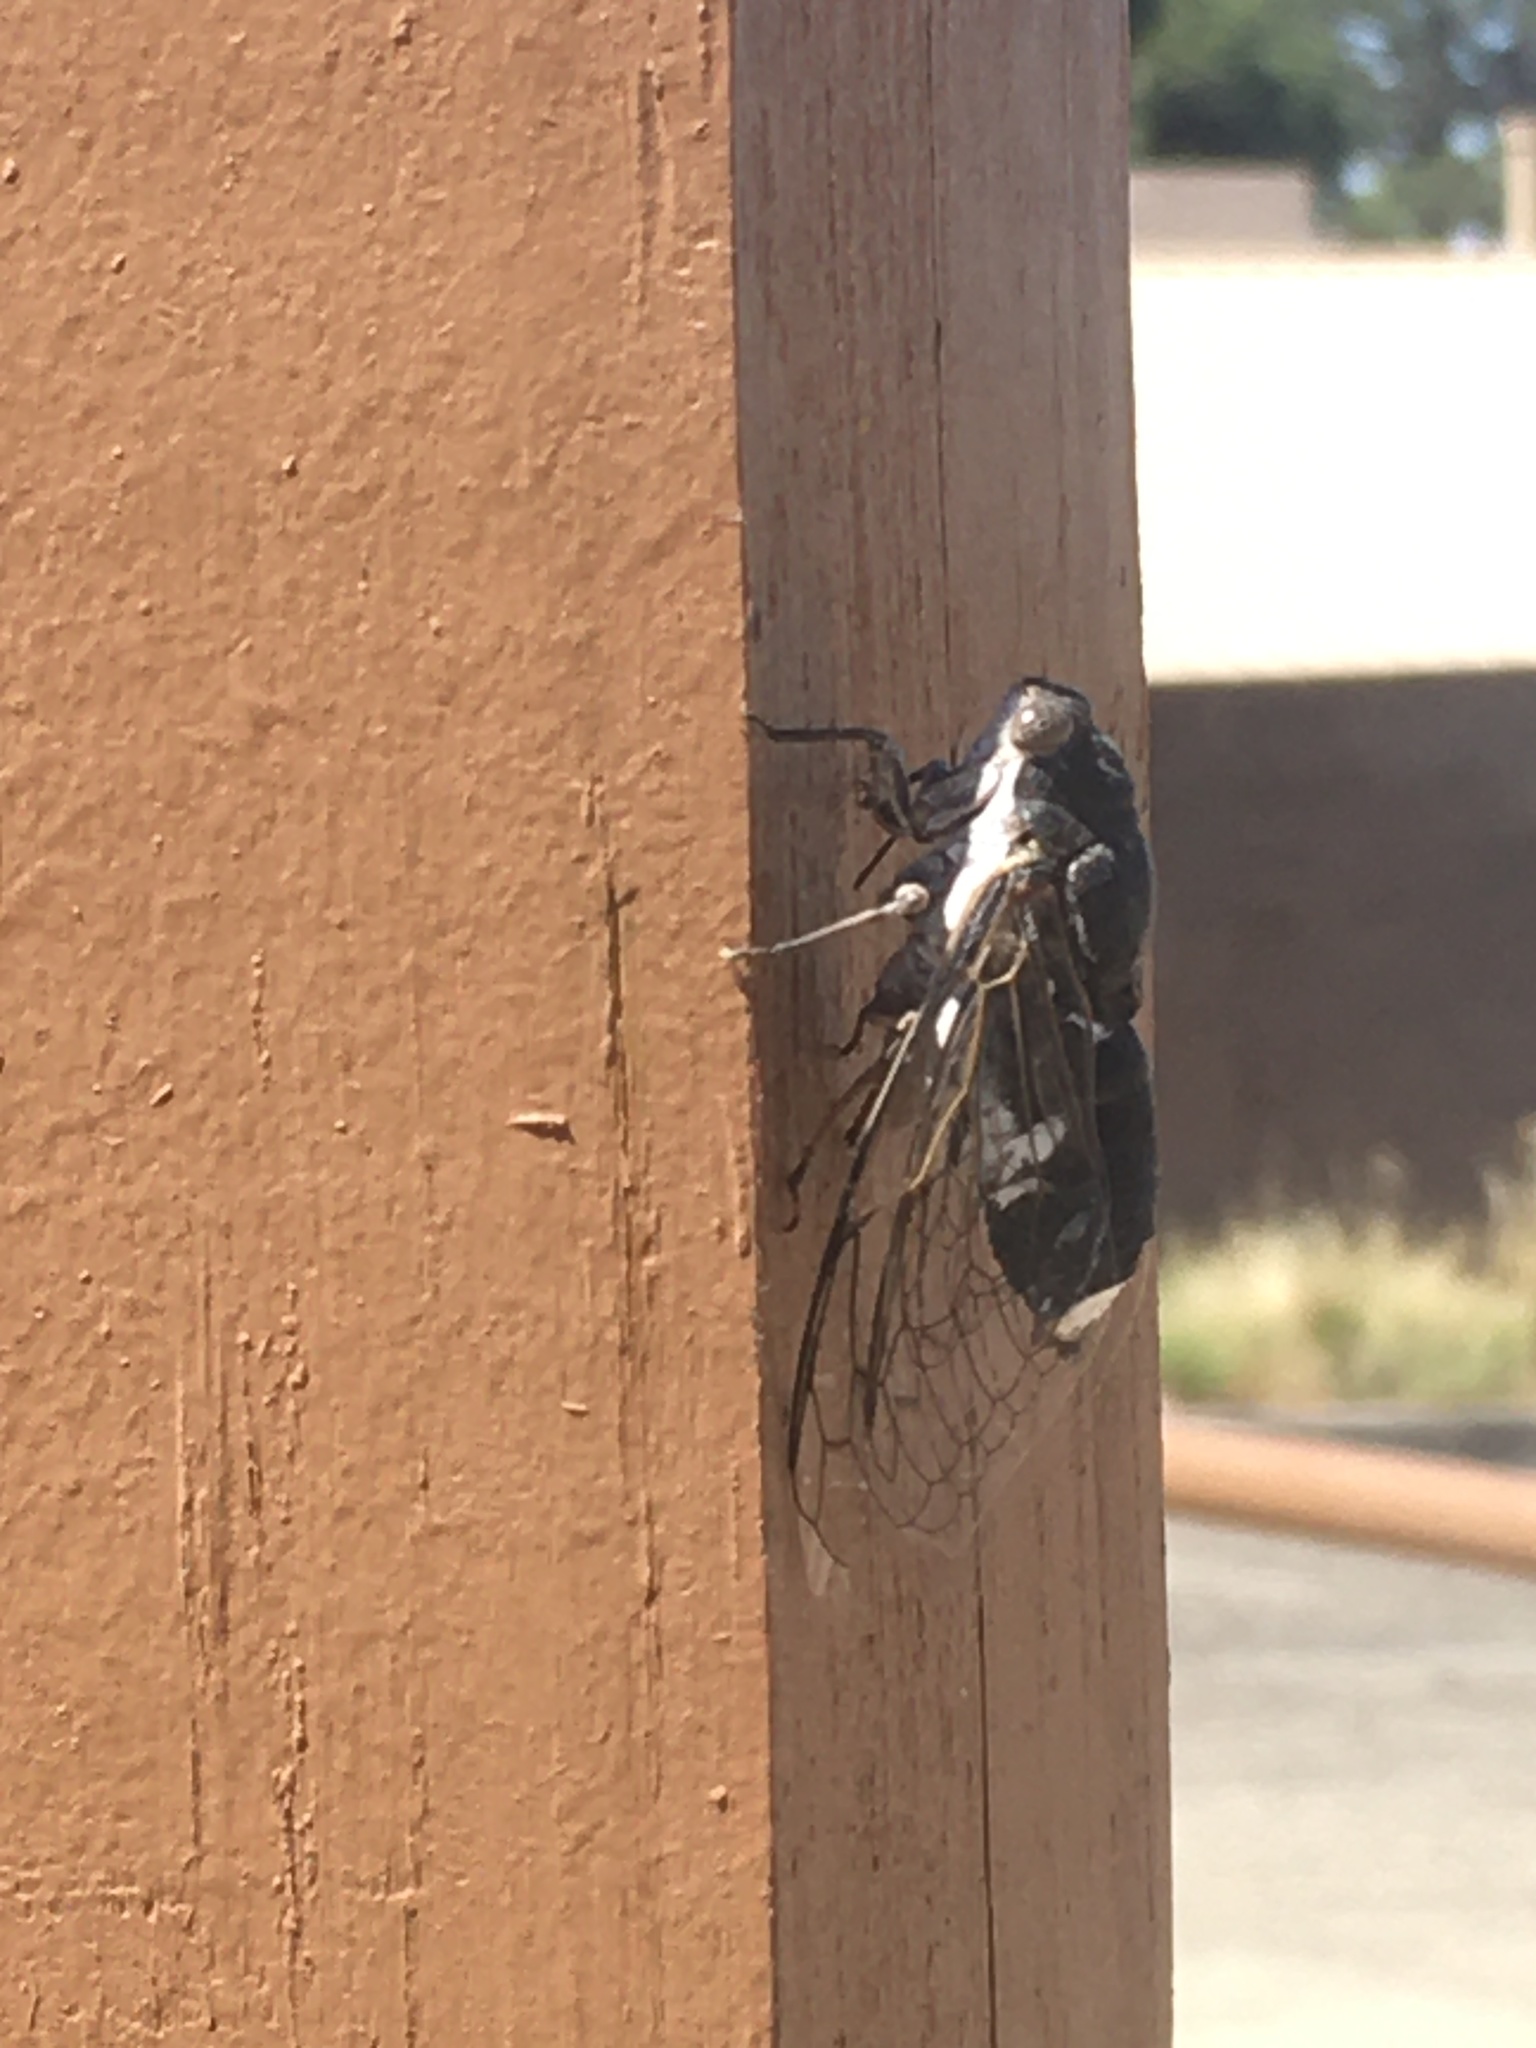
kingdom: Animalia
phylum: Arthropoda
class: Insecta
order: Hemiptera
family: Cicadidae
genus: Cacama
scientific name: Cacama valvata
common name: Cactus dodger
